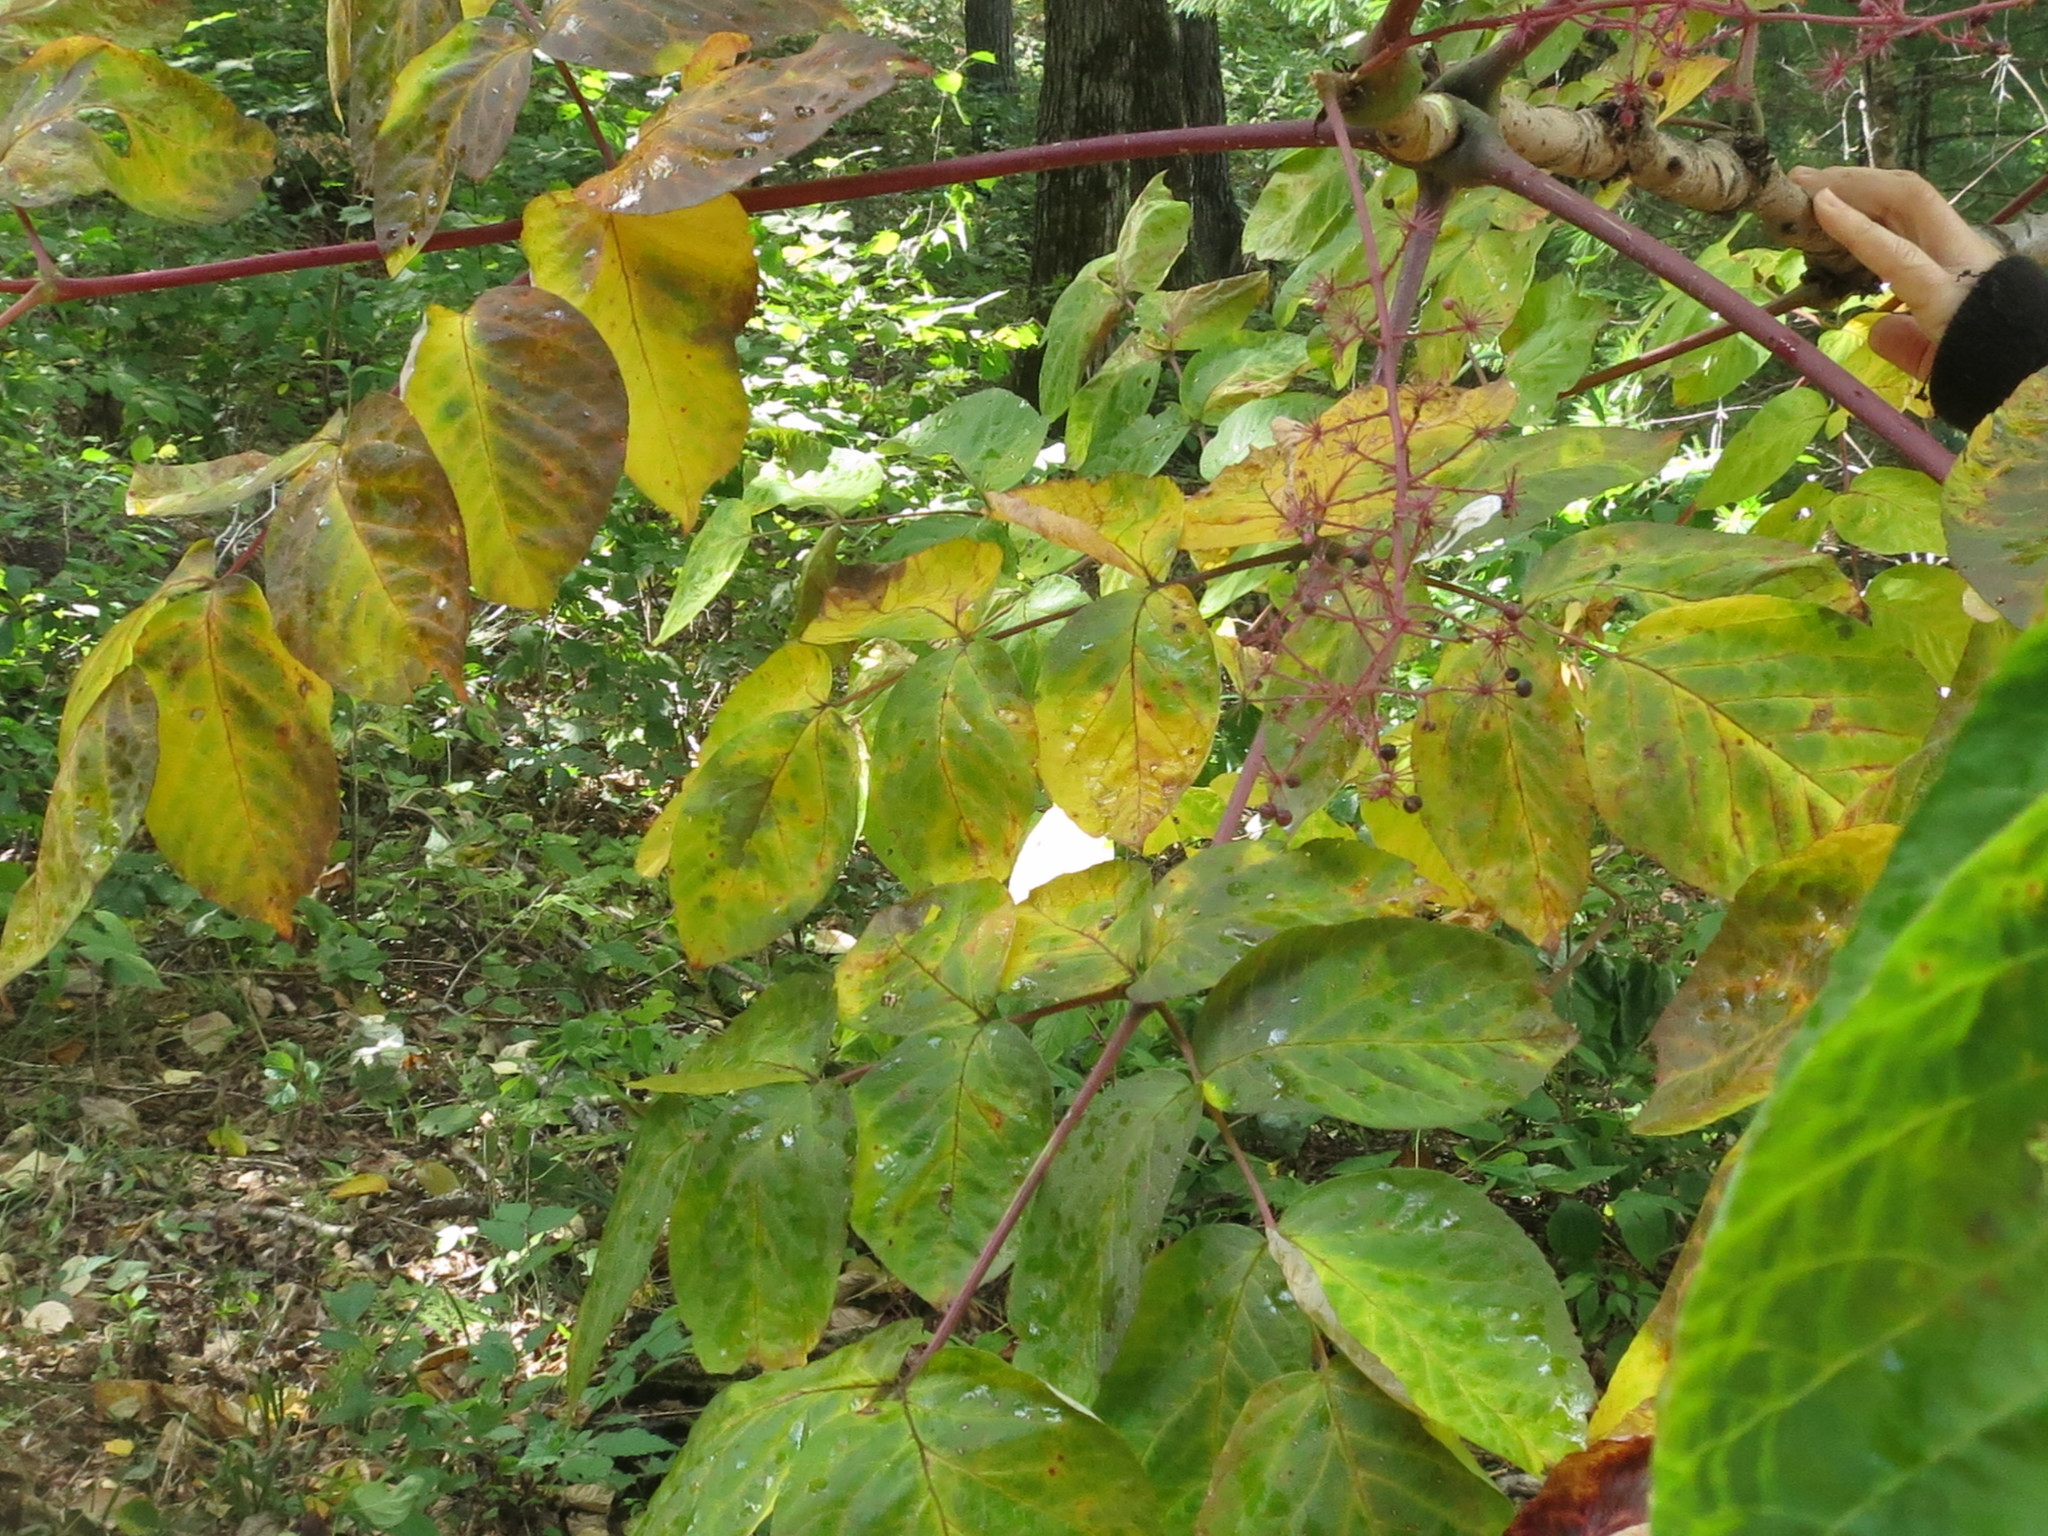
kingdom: Plantae
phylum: Tracheophyta
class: Magnoliopsida
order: Apiales
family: Araliaceae
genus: Aralia
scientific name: Aralia elata
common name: Japanese angelica-tree
